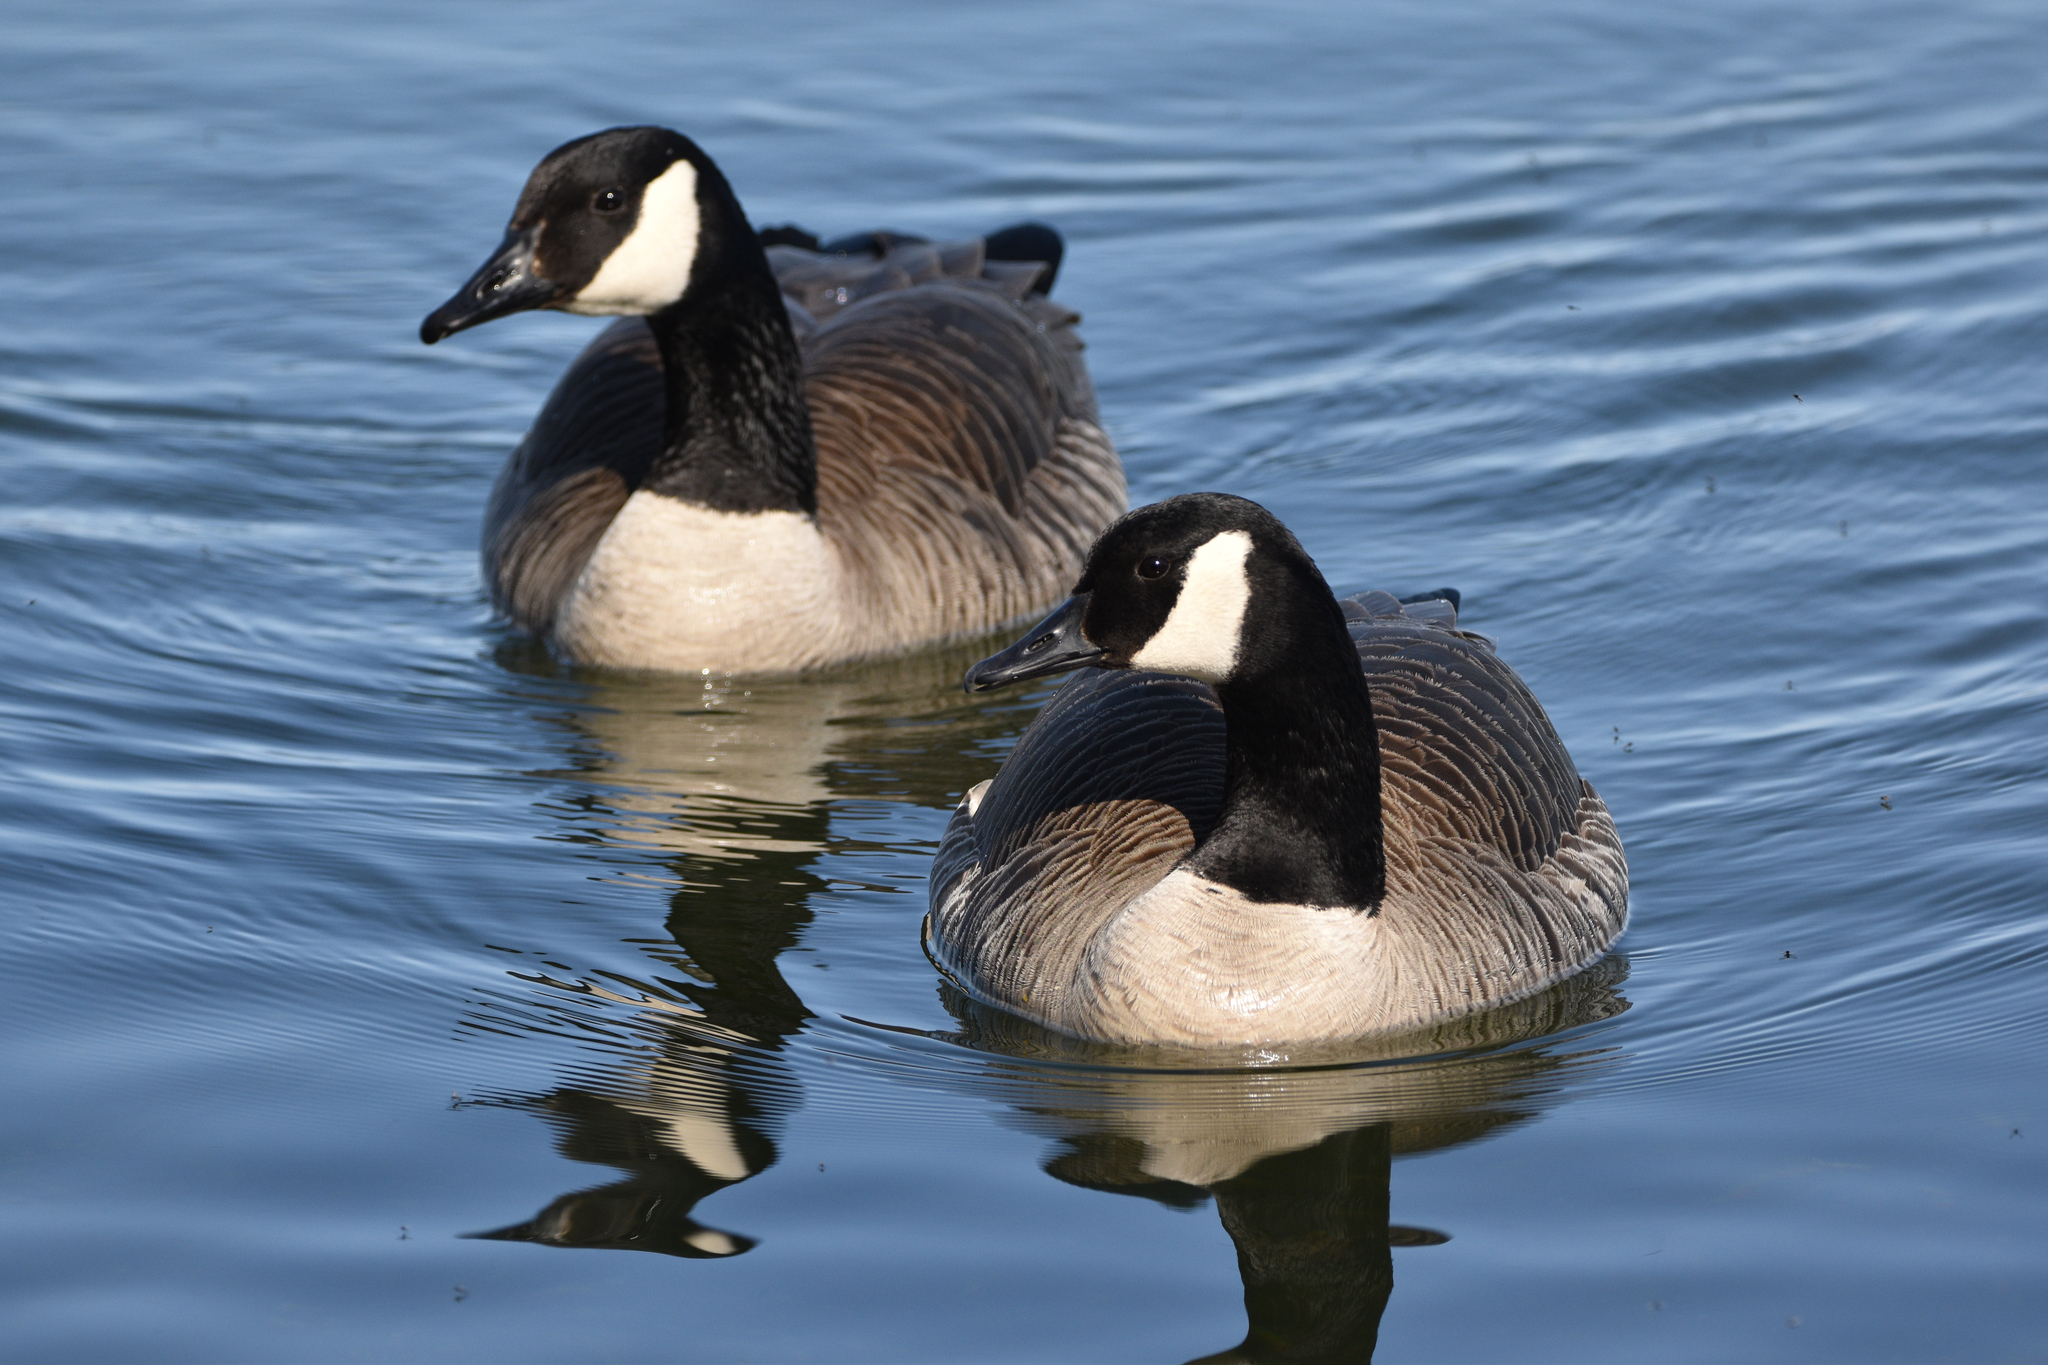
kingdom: Animalia
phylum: Chordata
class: Aves
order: Anseriformes
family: Anatidae
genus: Branta
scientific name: Branta canadensis
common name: Canada goose
